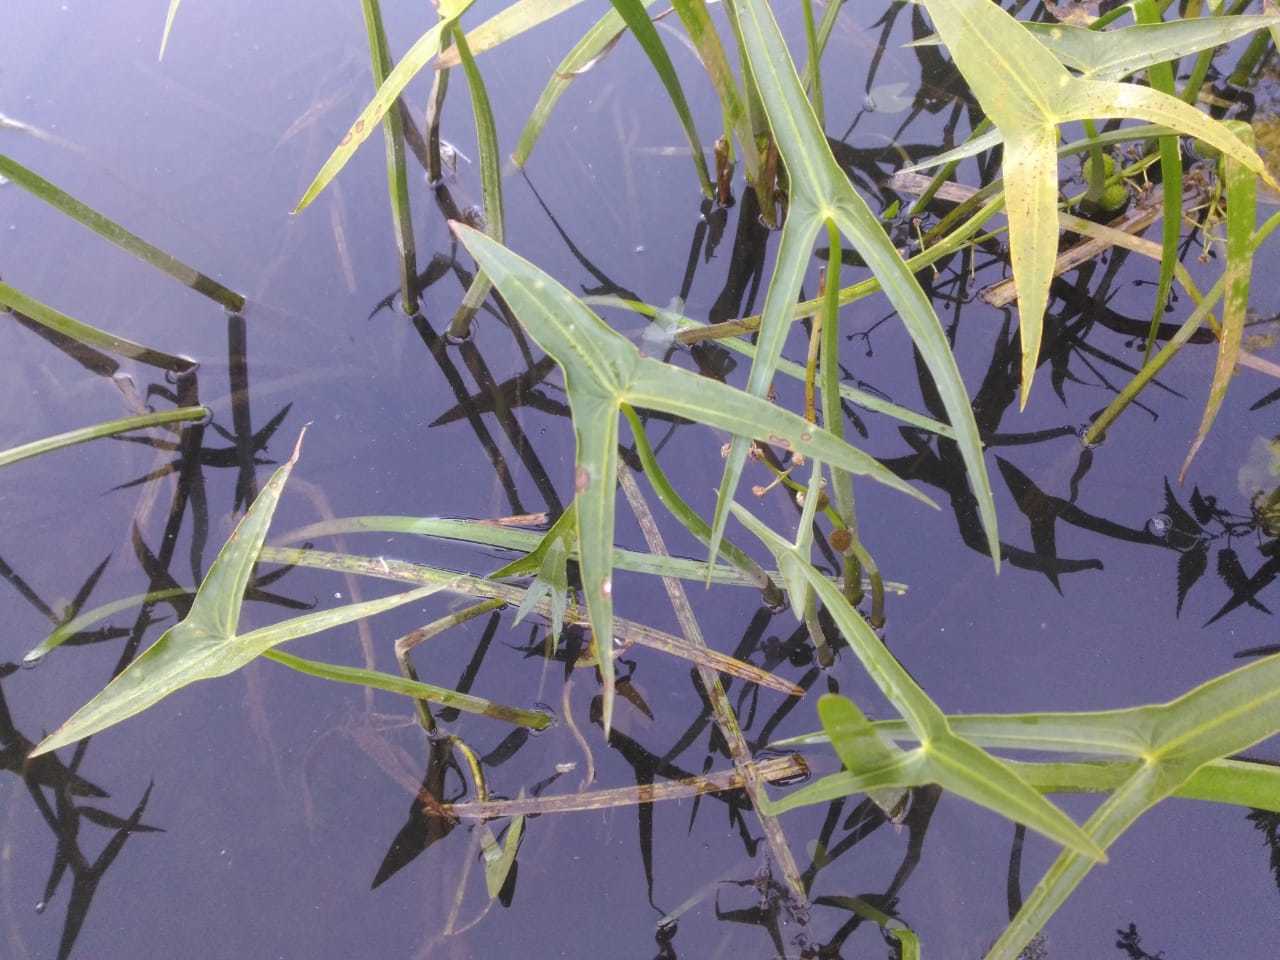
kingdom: Plantae
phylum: Tracheophyta
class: Liliopsida
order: Alismatales
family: Alismataceae
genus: Sagittaria
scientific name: Sagittaria sagittifolia
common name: Arrowhead
